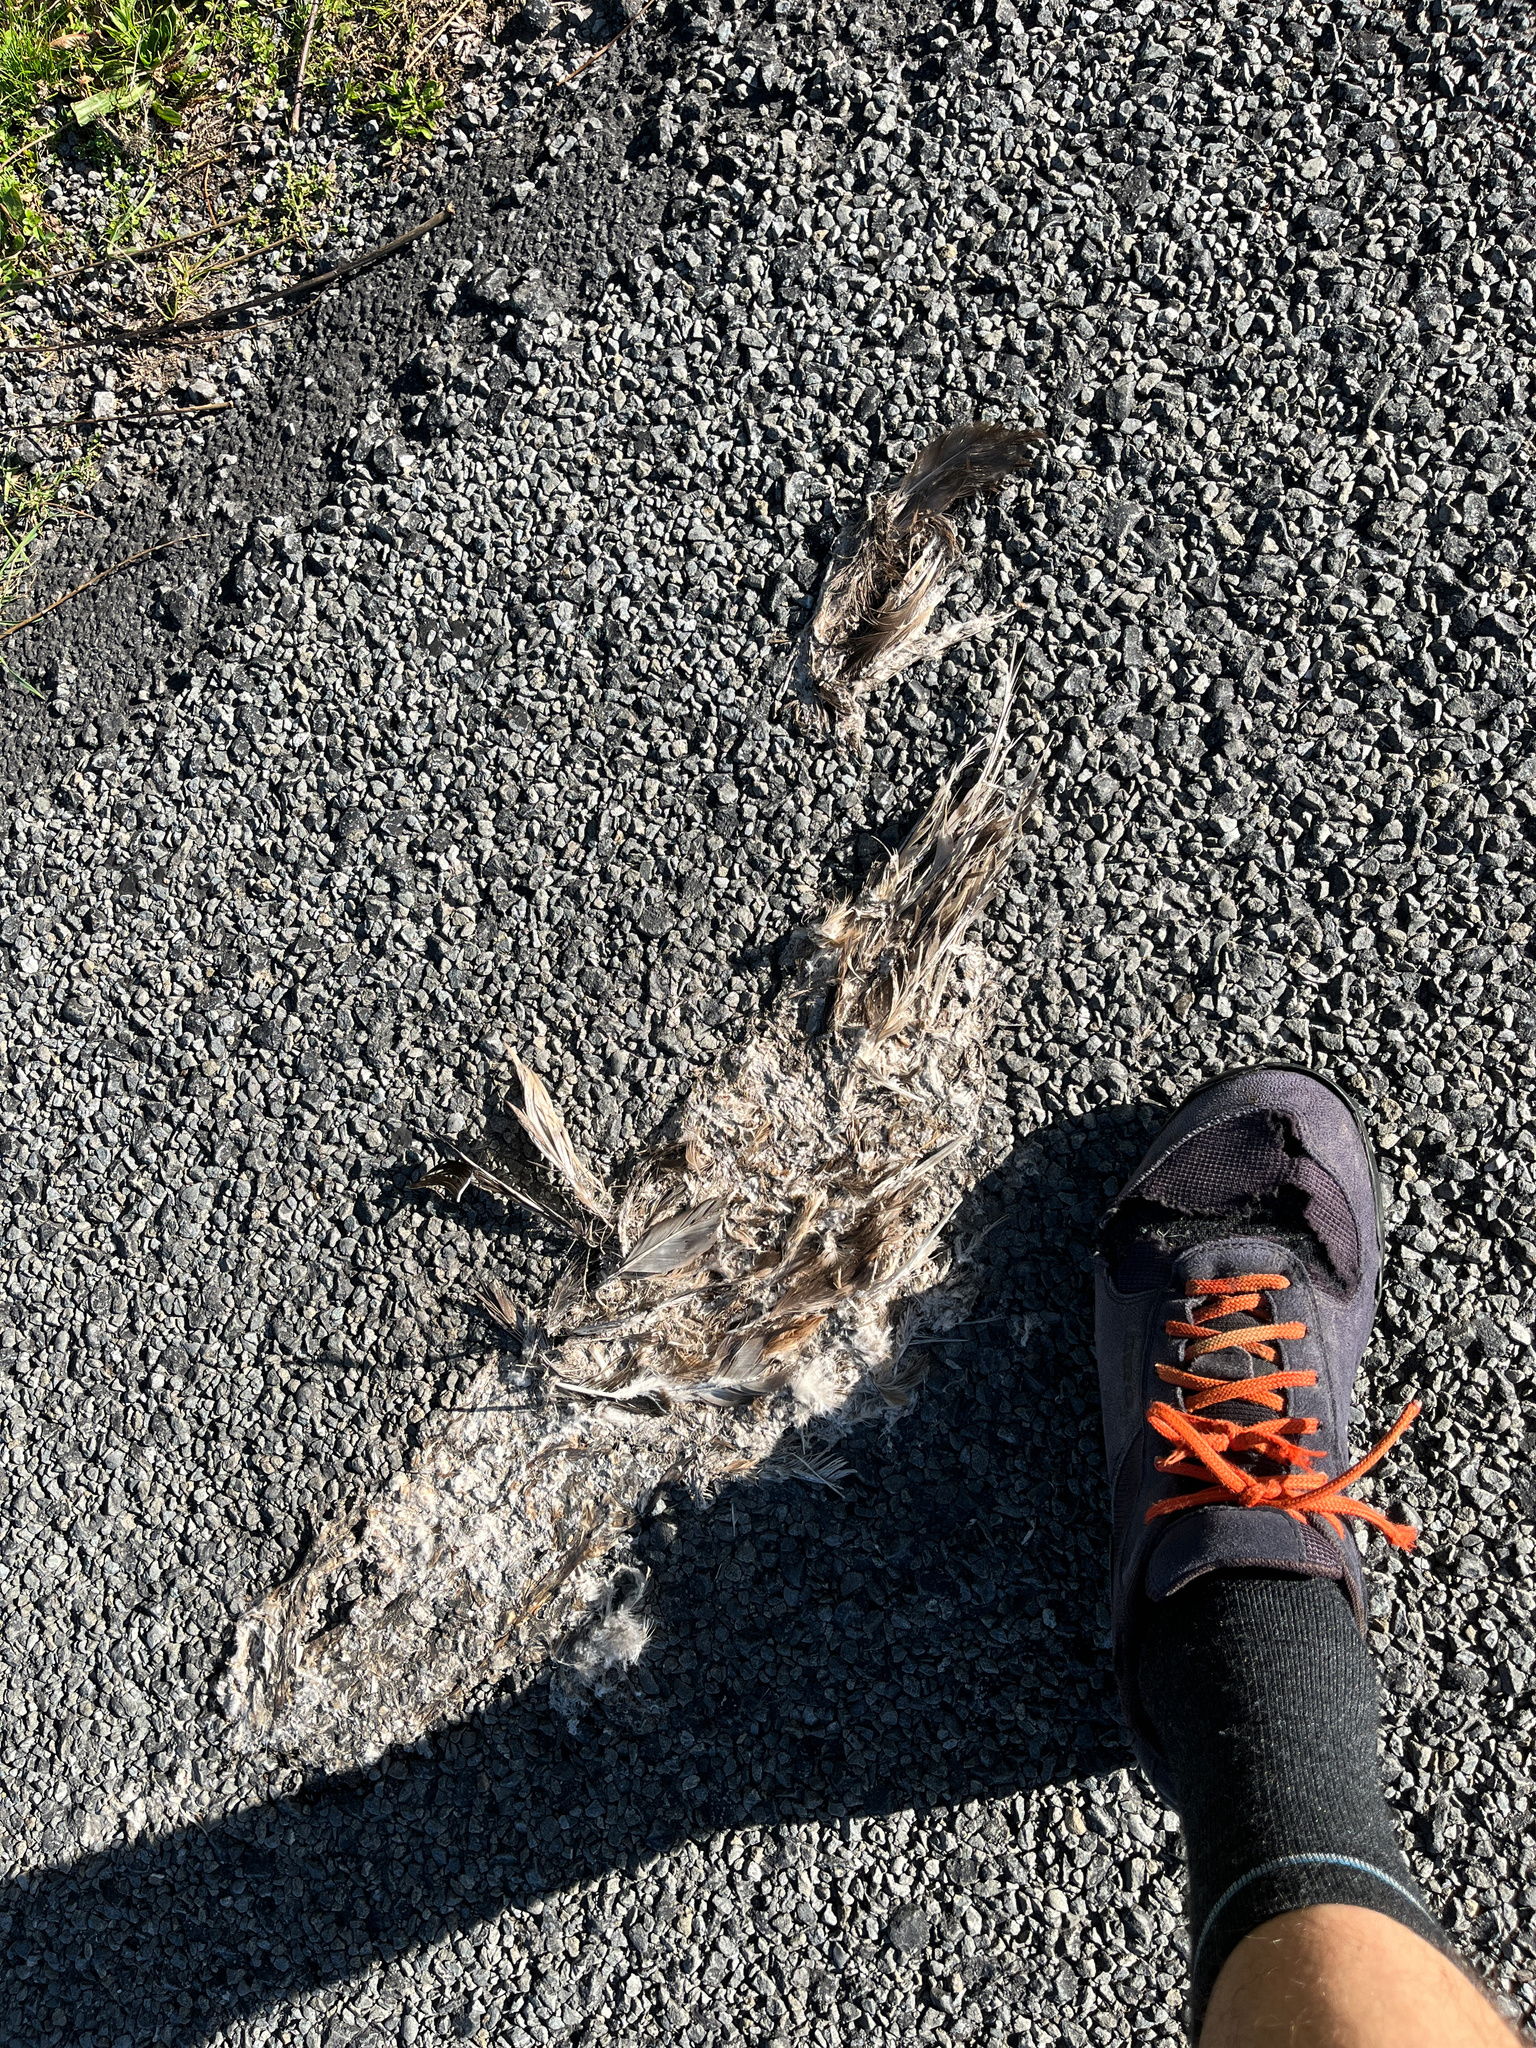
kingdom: Animalia
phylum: Chordata
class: Aves
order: Charadriiformes
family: Laridae
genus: Larus
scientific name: Larus dominicanus
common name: Kelp gull
